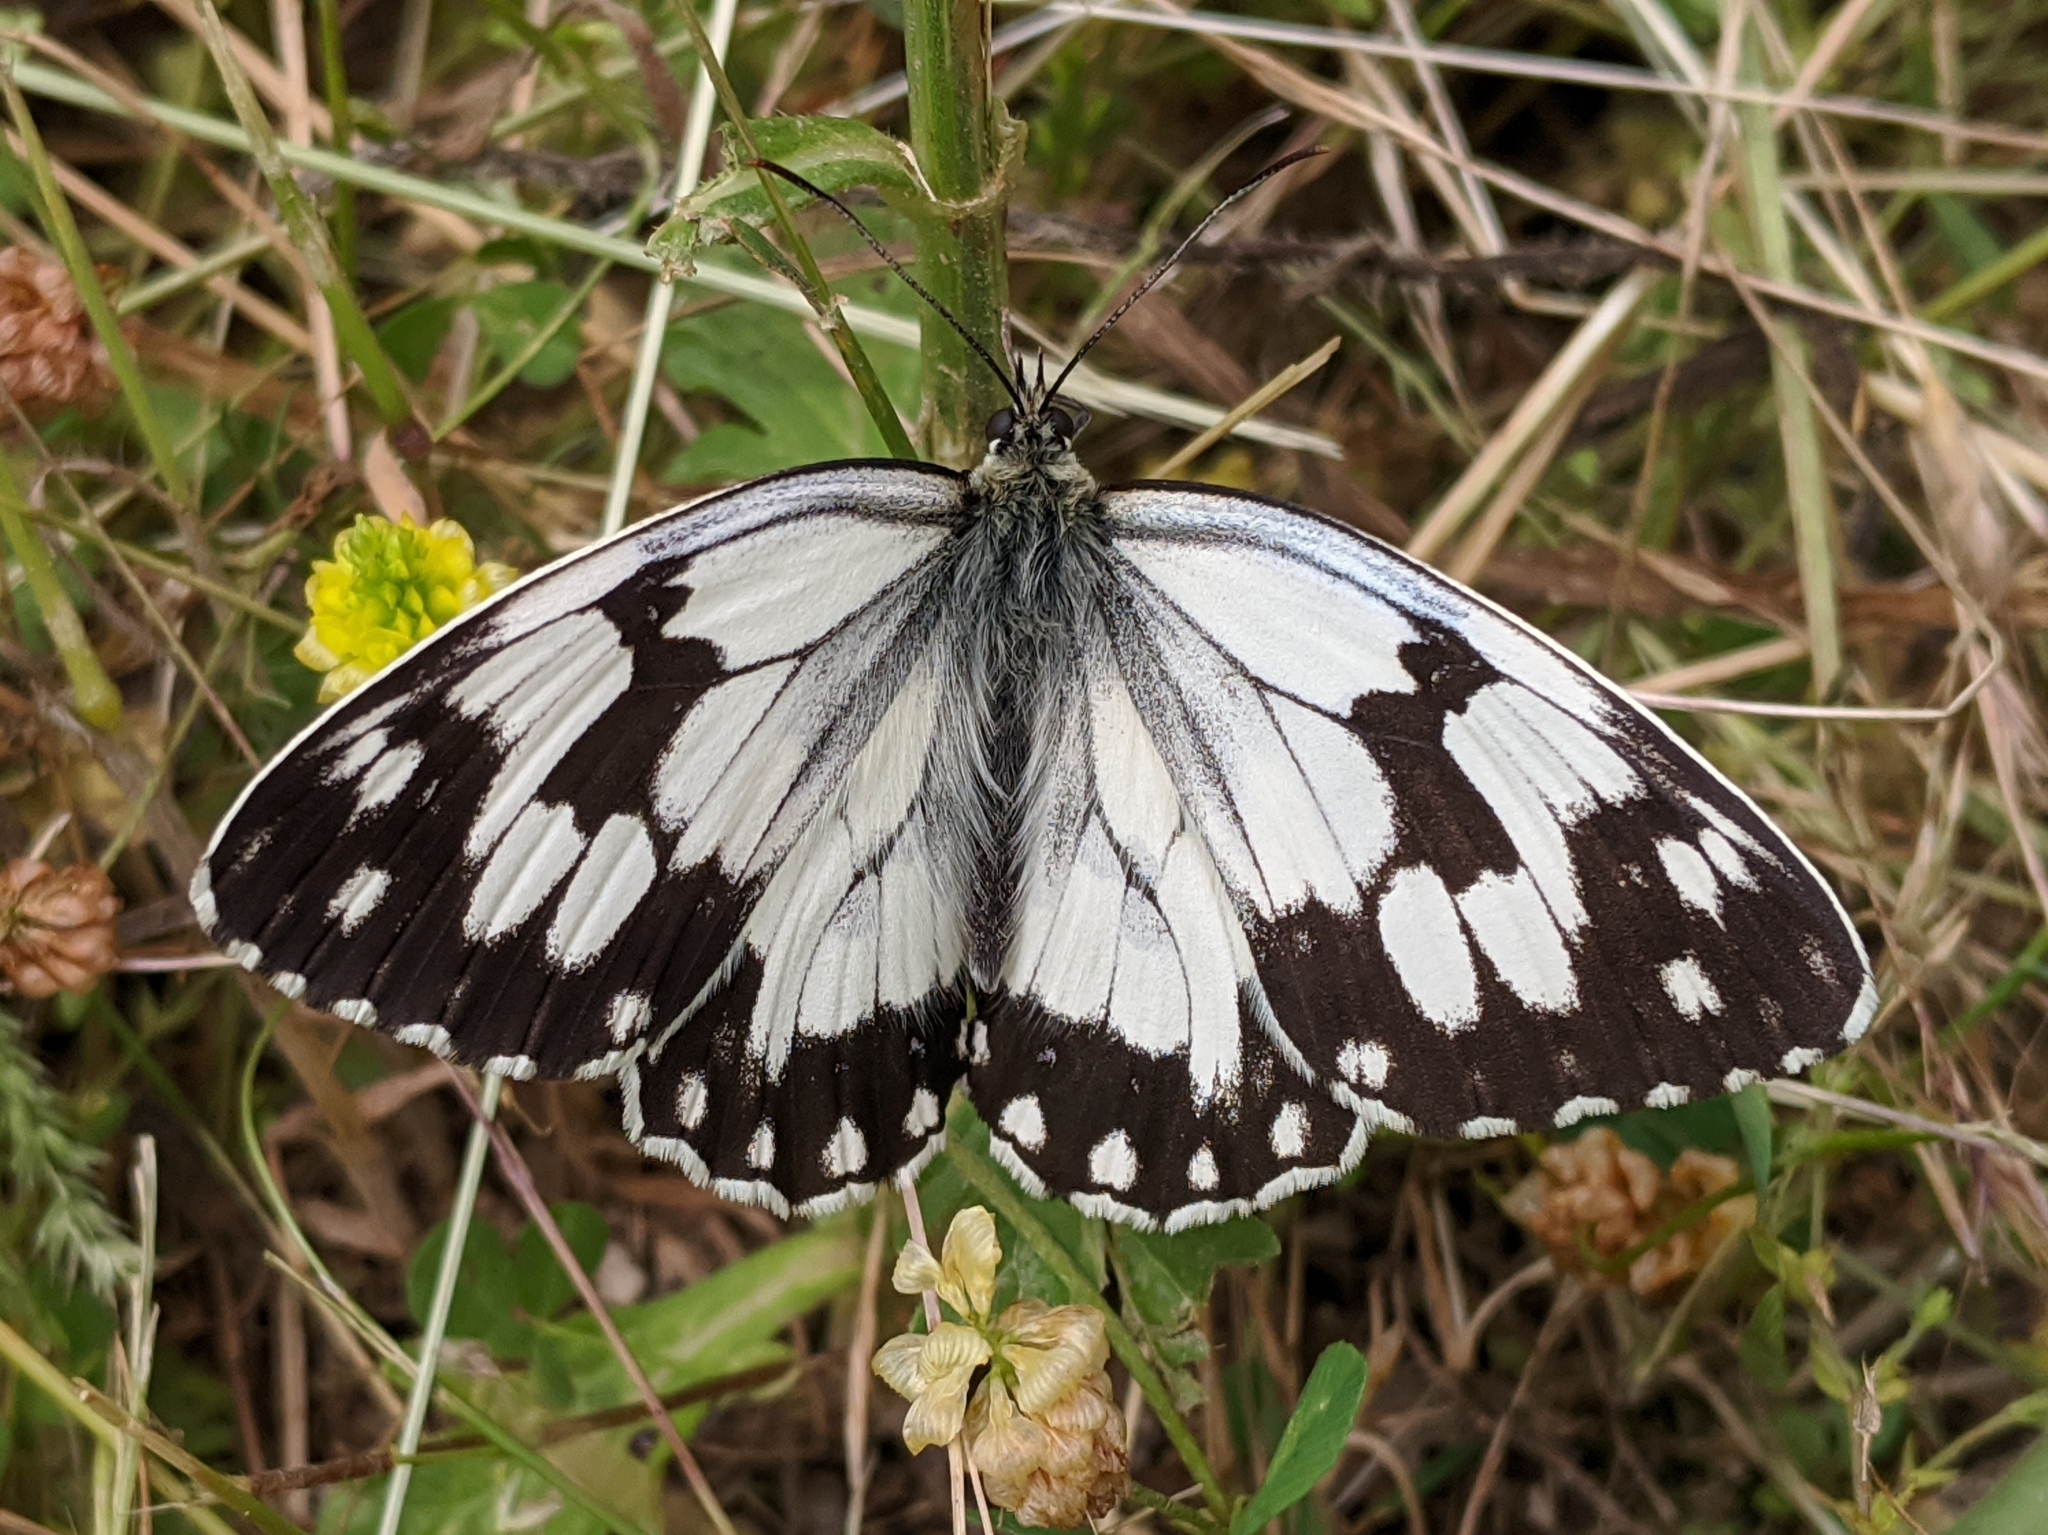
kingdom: Animalia
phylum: Arthropoda
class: Insecta
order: Lepidoptera
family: Nymphalidae
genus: Melanargia
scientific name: Melanargia lachesis
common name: Iberian marbled white
